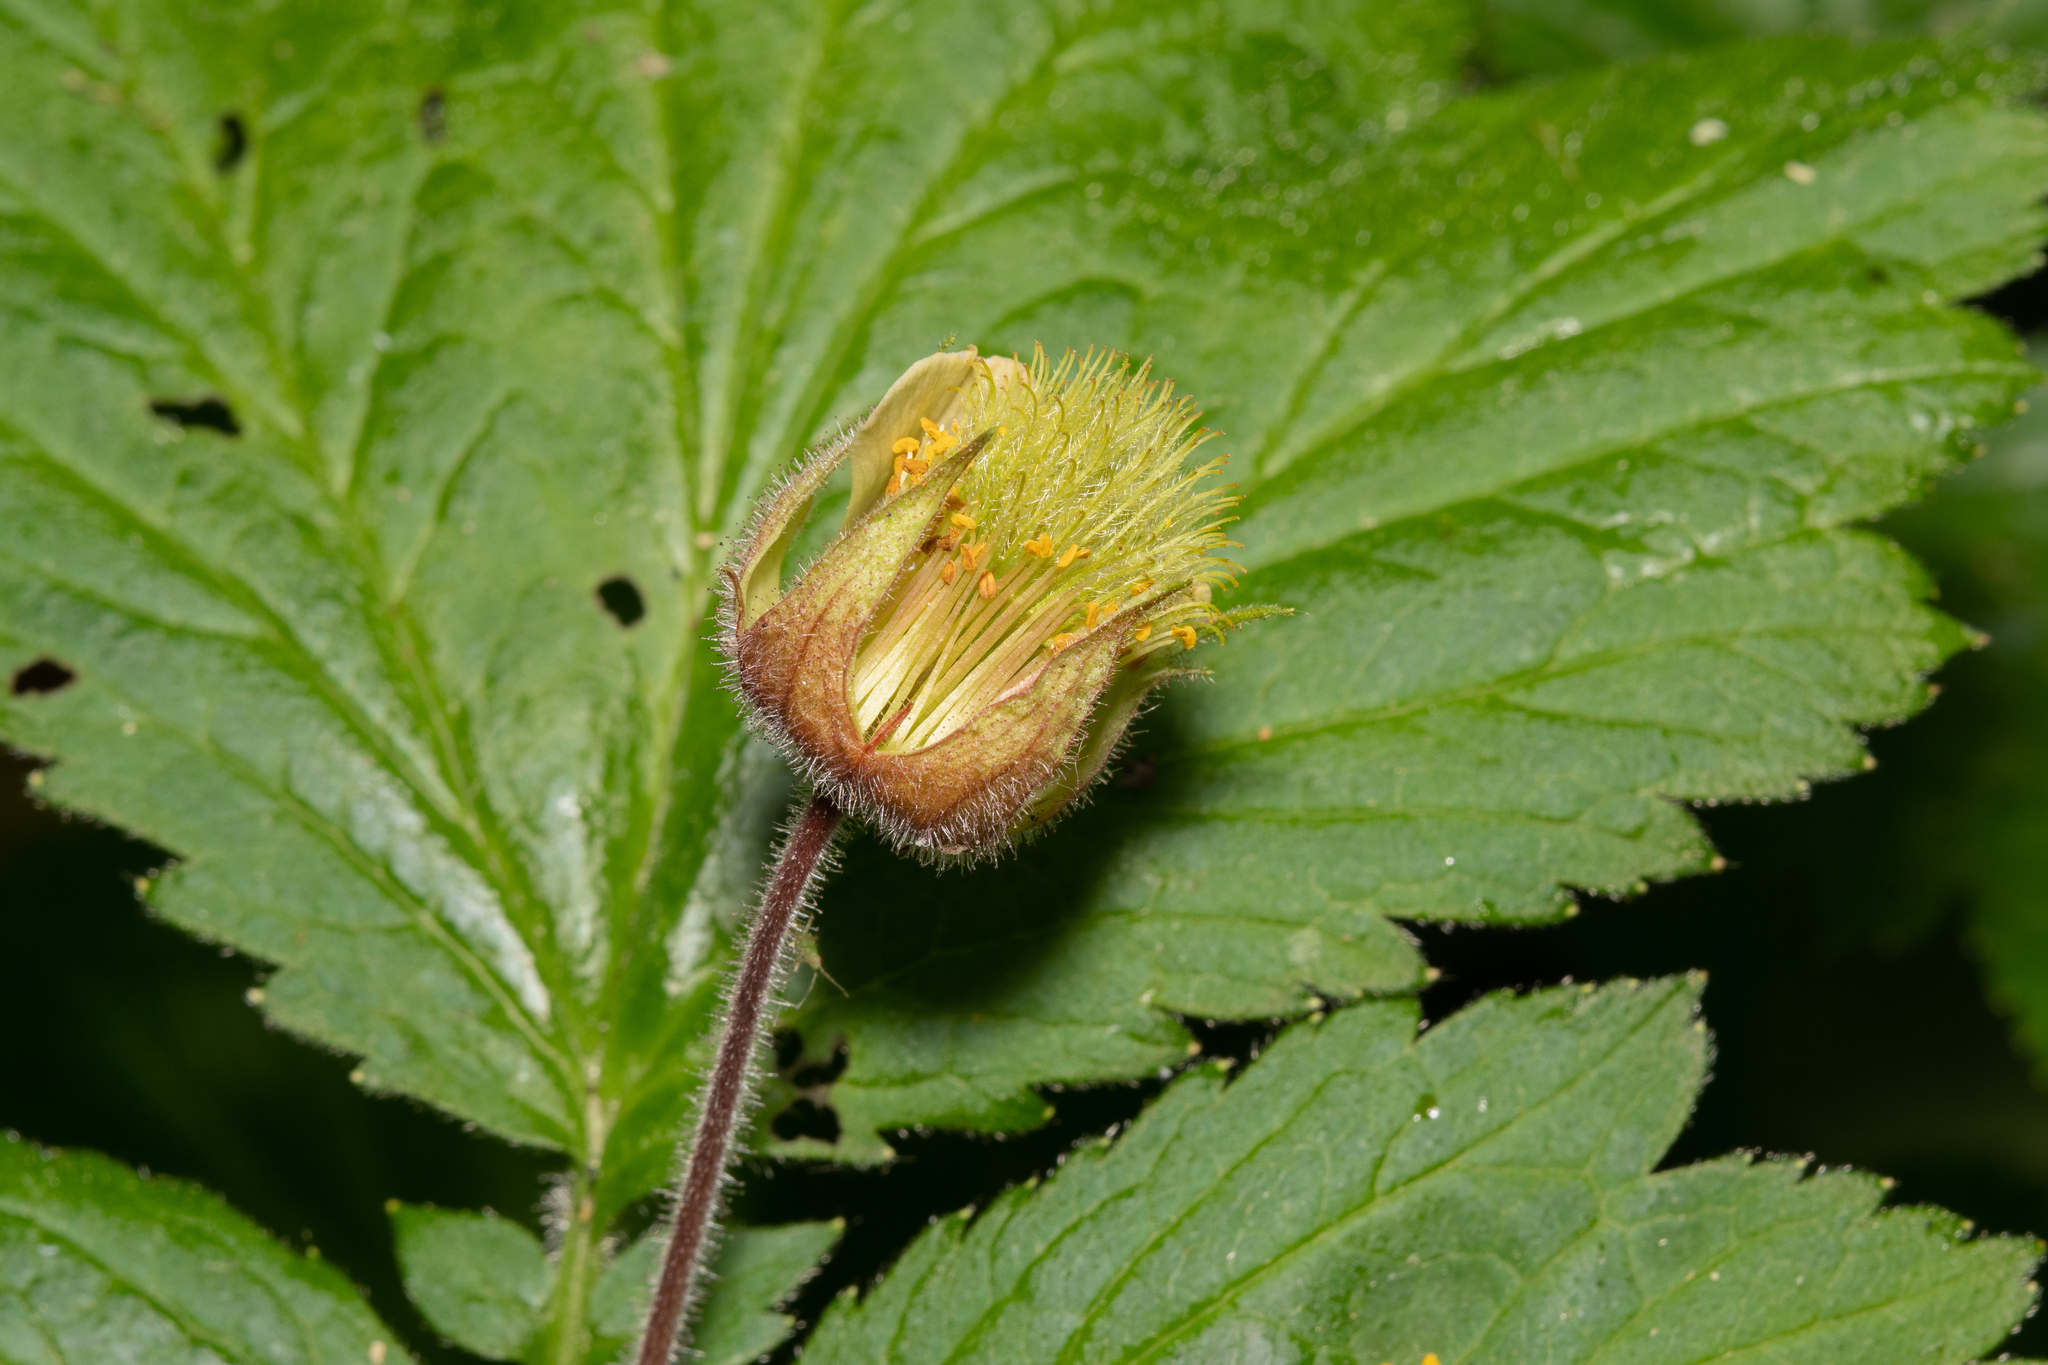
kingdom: Plantae
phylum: Tracheophyta
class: Magnoliopsida
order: Rosales
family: Rosaceae
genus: Geum
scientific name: Geum rivale
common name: Water avens
